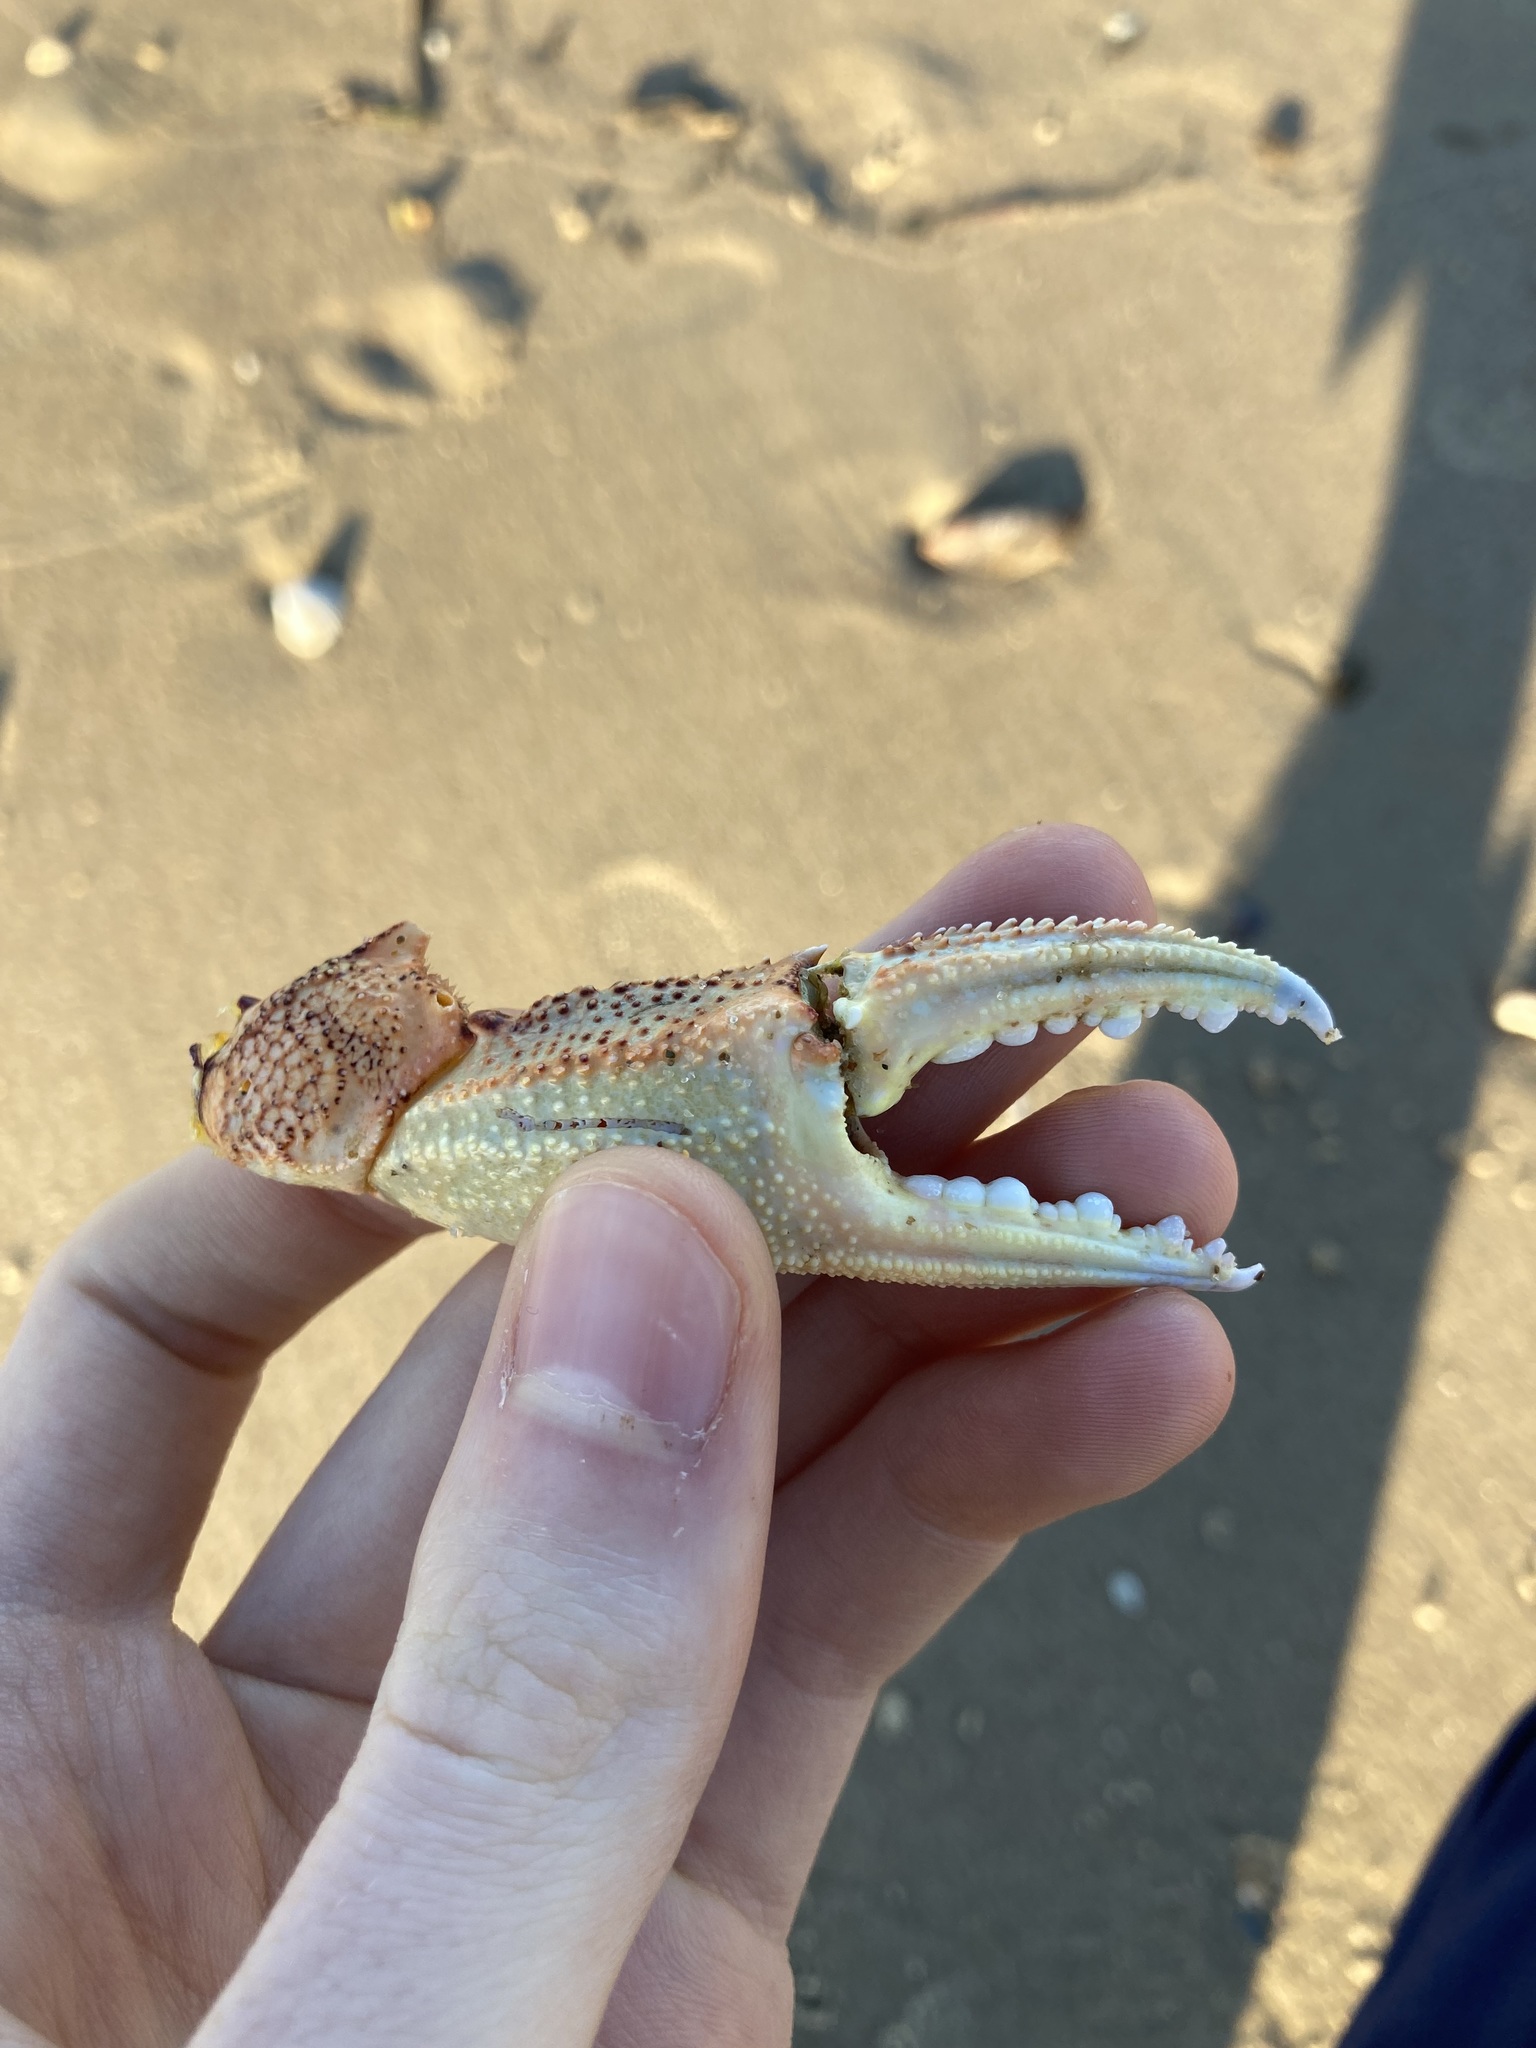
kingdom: Animalia
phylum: Arthropoda
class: Malacostraca
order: Decapoda
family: Ovalipidae
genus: Ovalipes
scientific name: Ovalipes australiensis
